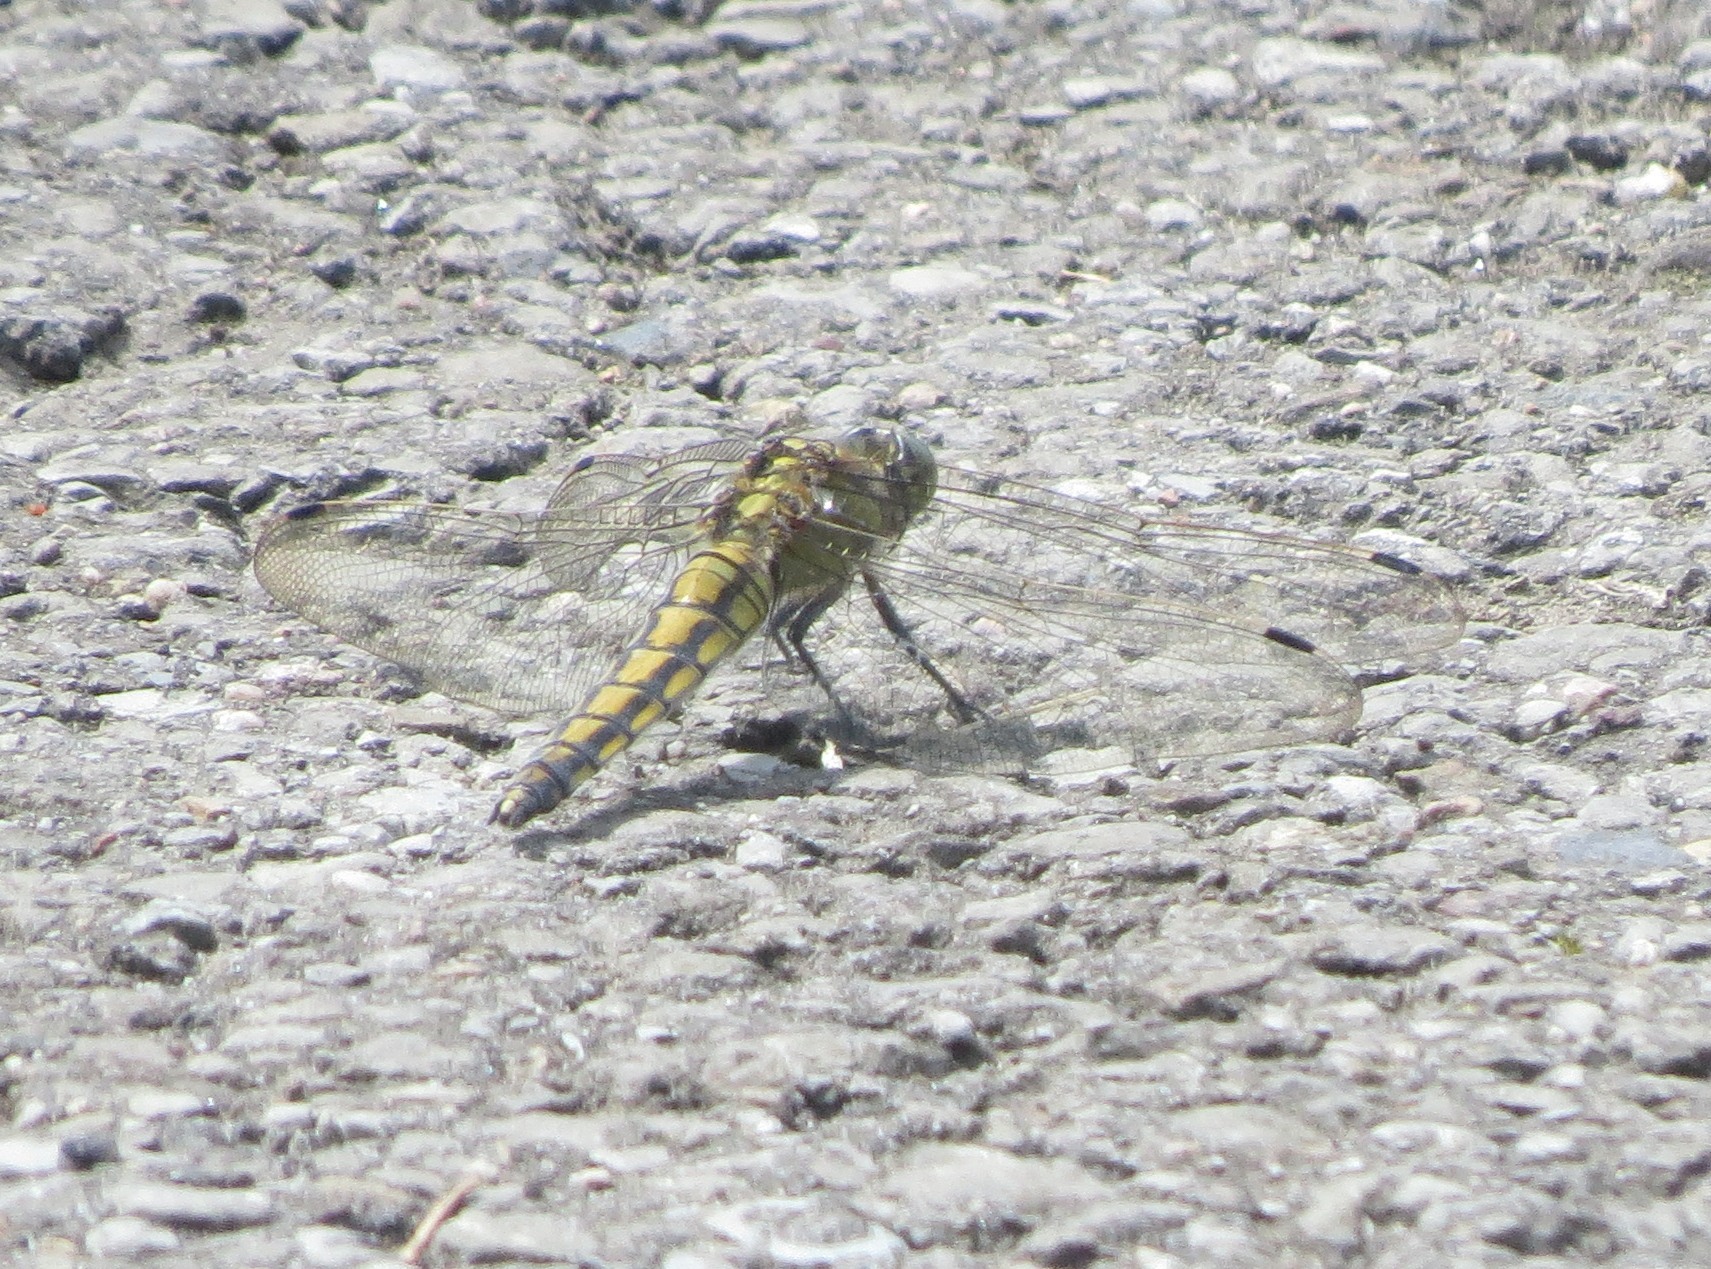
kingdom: Animalia
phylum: Arthropoda
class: Insecta
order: Odonata
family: Libellulidae
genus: Orthetrum
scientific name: Orthetrum cancellatum
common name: Black-tailed skimmer
